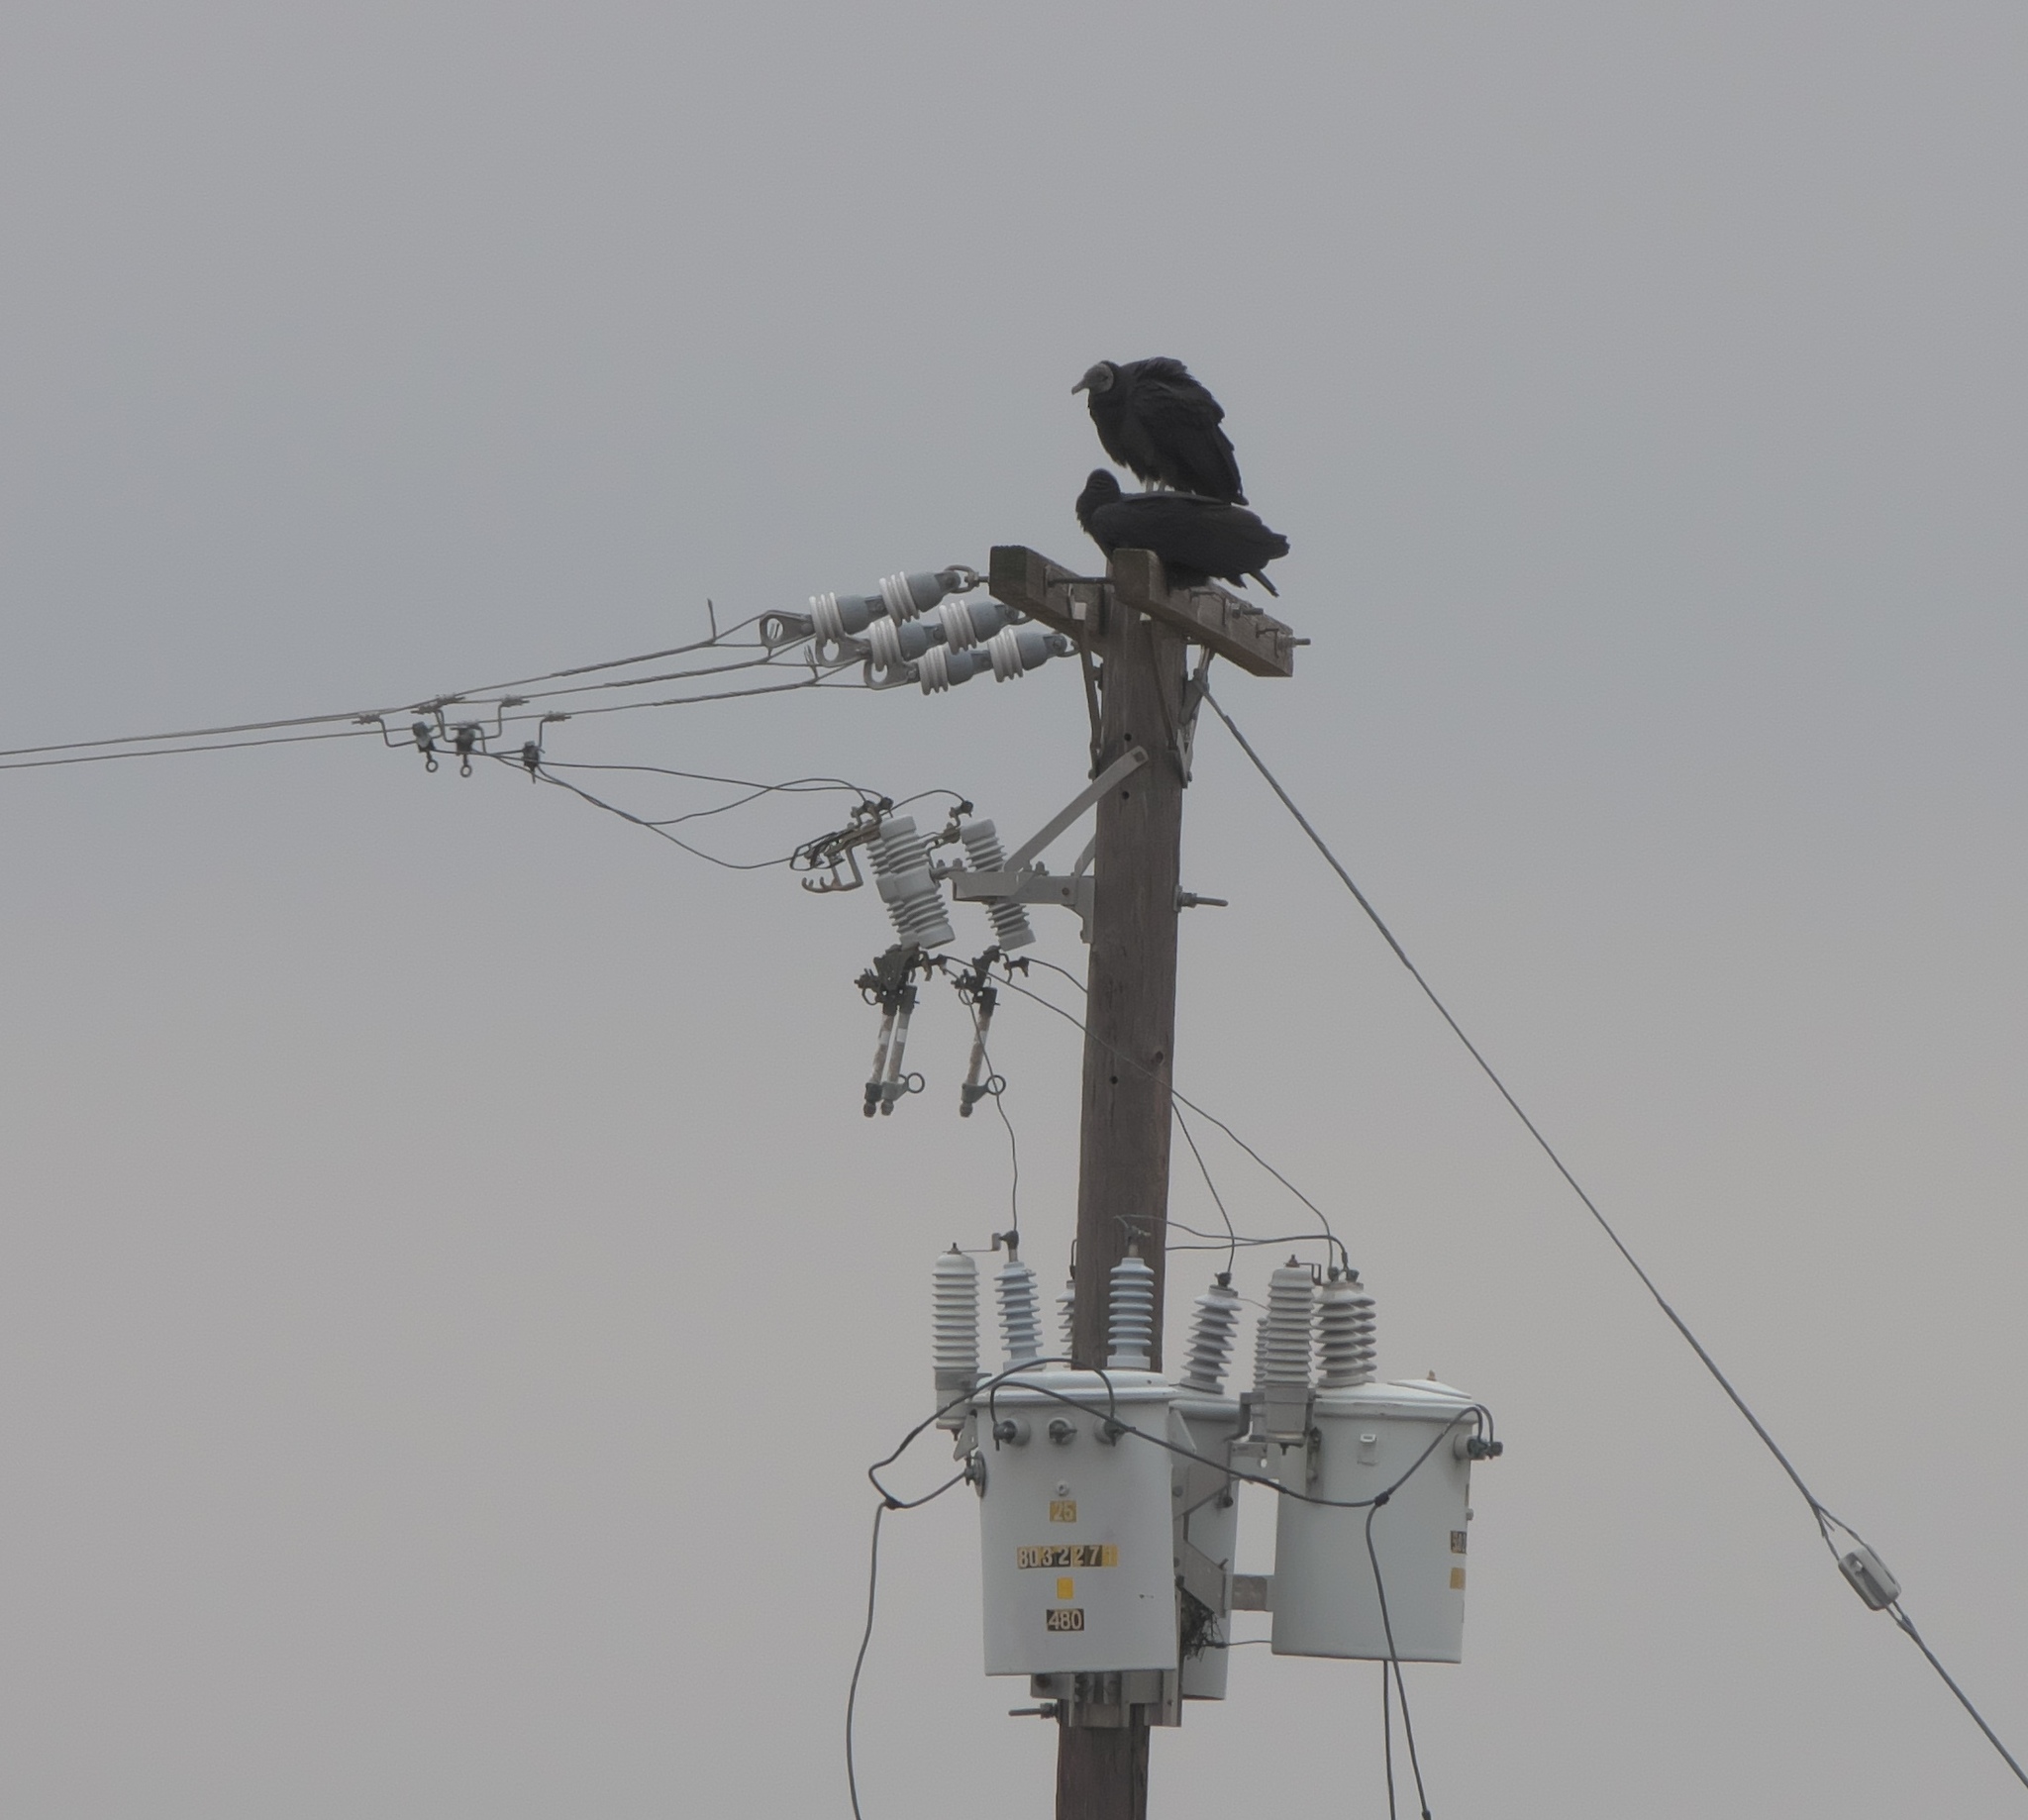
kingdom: Animalia
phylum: Chordata
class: Aves
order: Accipitriformes
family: Cathartidae
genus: Coragyps
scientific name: Coragyps atratus
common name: Black vulture
